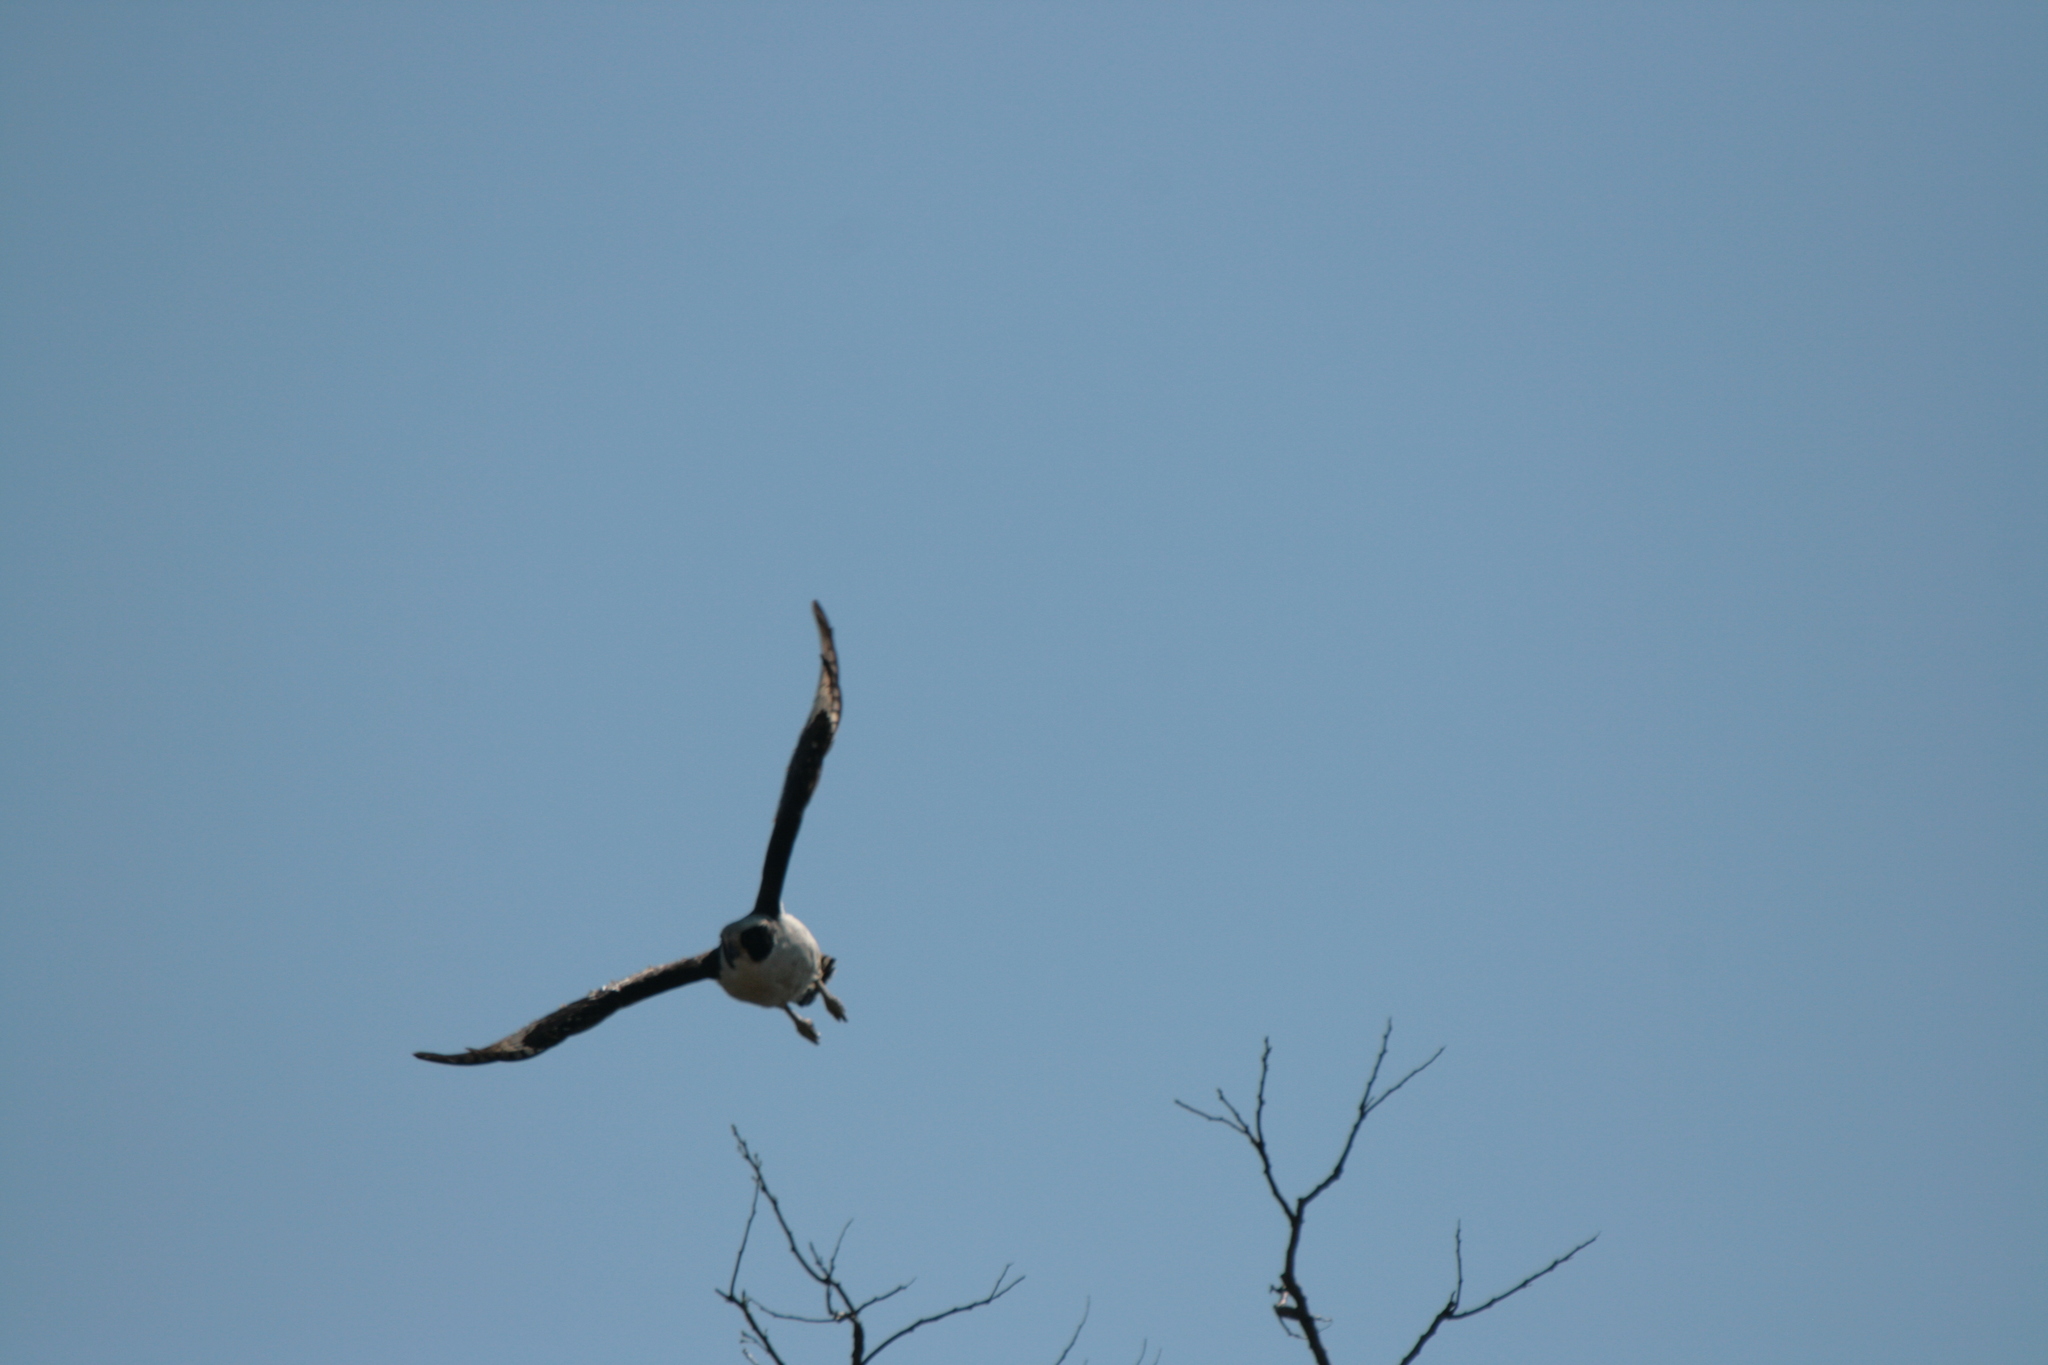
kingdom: Animalia
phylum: Chordata
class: Aves
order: Falconiformes
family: Falconidae
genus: Herpetotheres
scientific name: Herpetotheres cachinnans
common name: Laughing falcon
